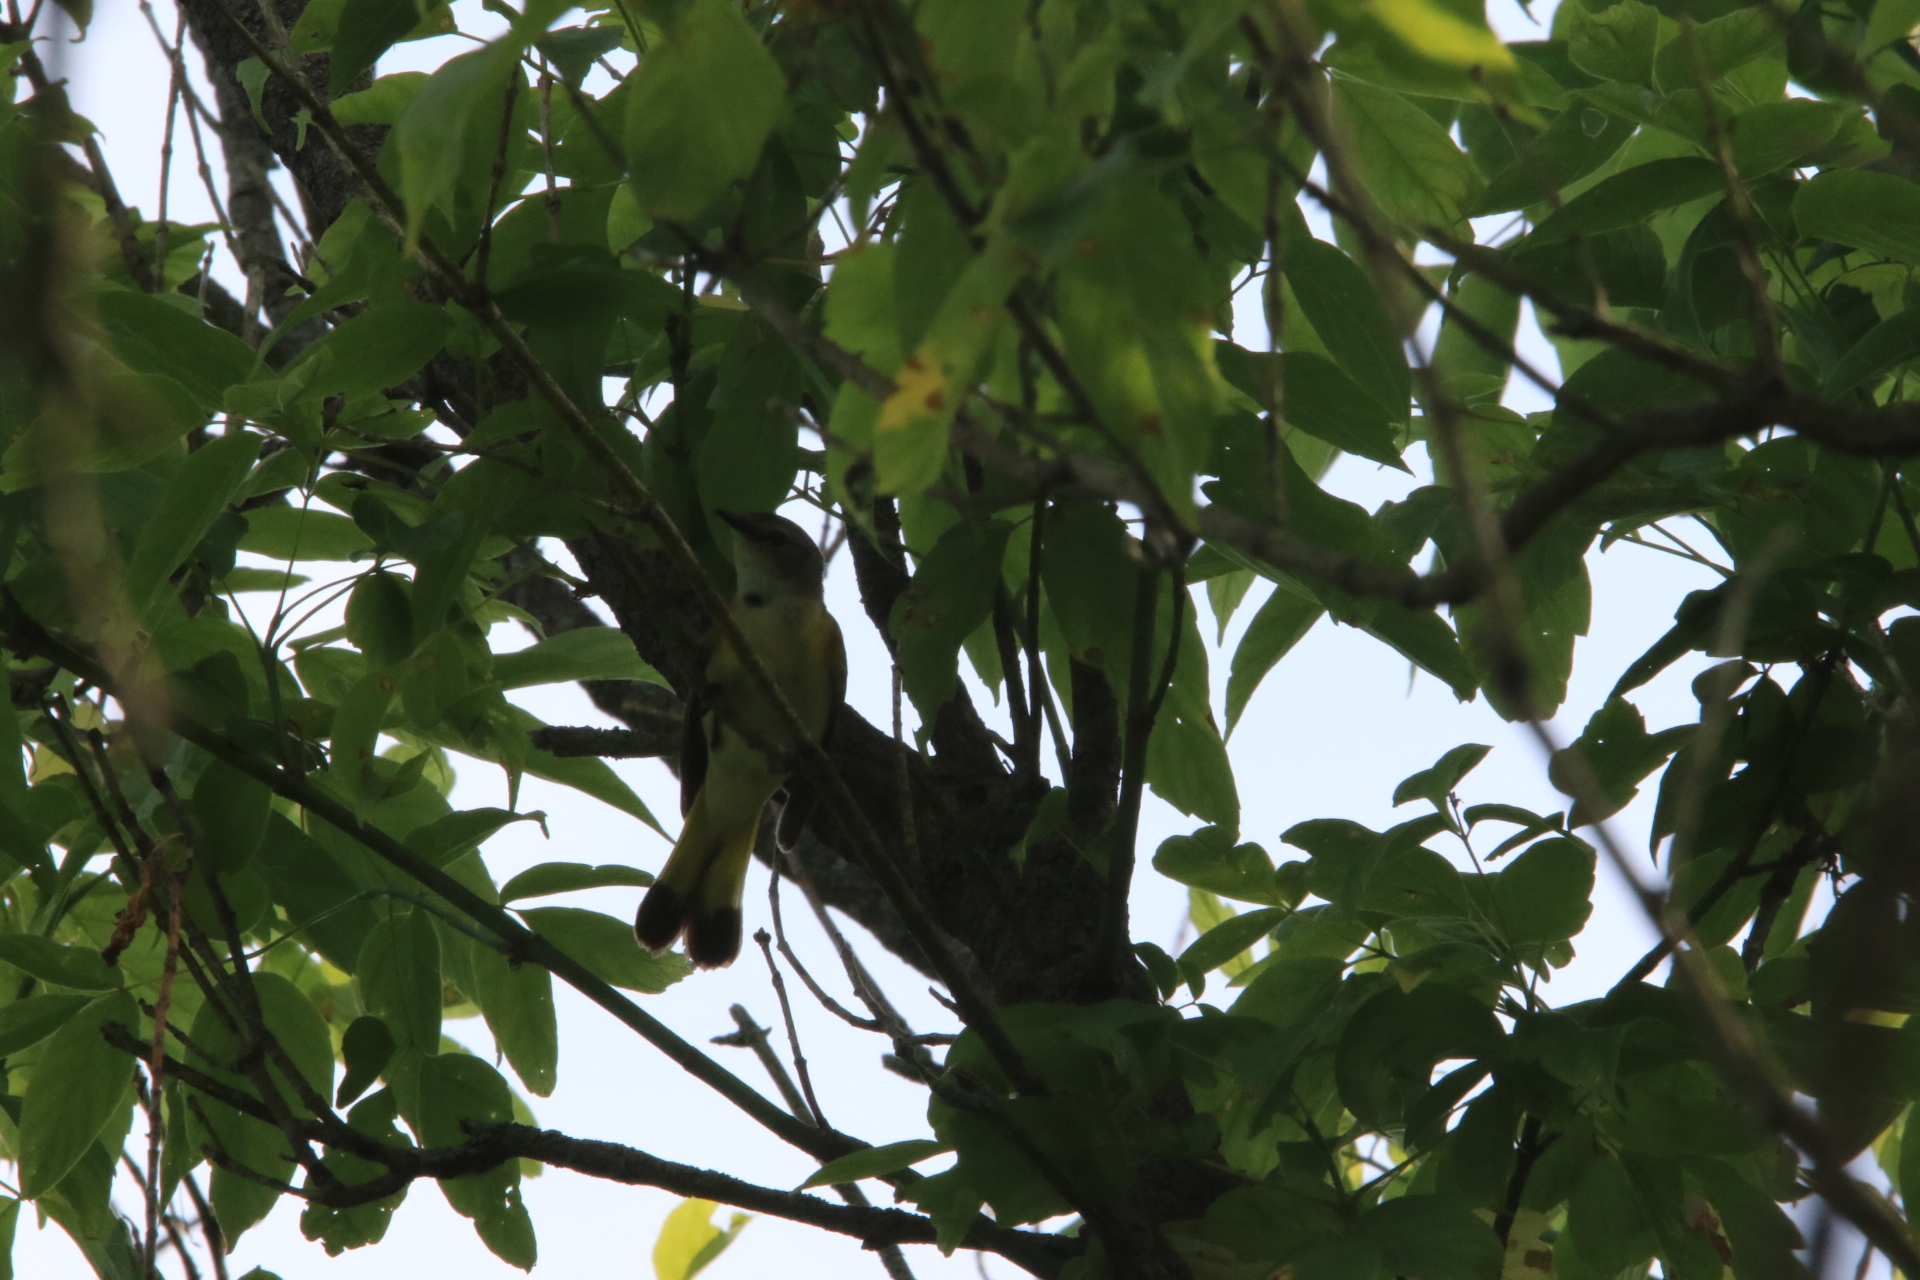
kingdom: Animalia
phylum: Chordata
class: Aves
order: Passeriformes
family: Parulidae
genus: Setophaga
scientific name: Setophaga ruticilla
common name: American redstart
